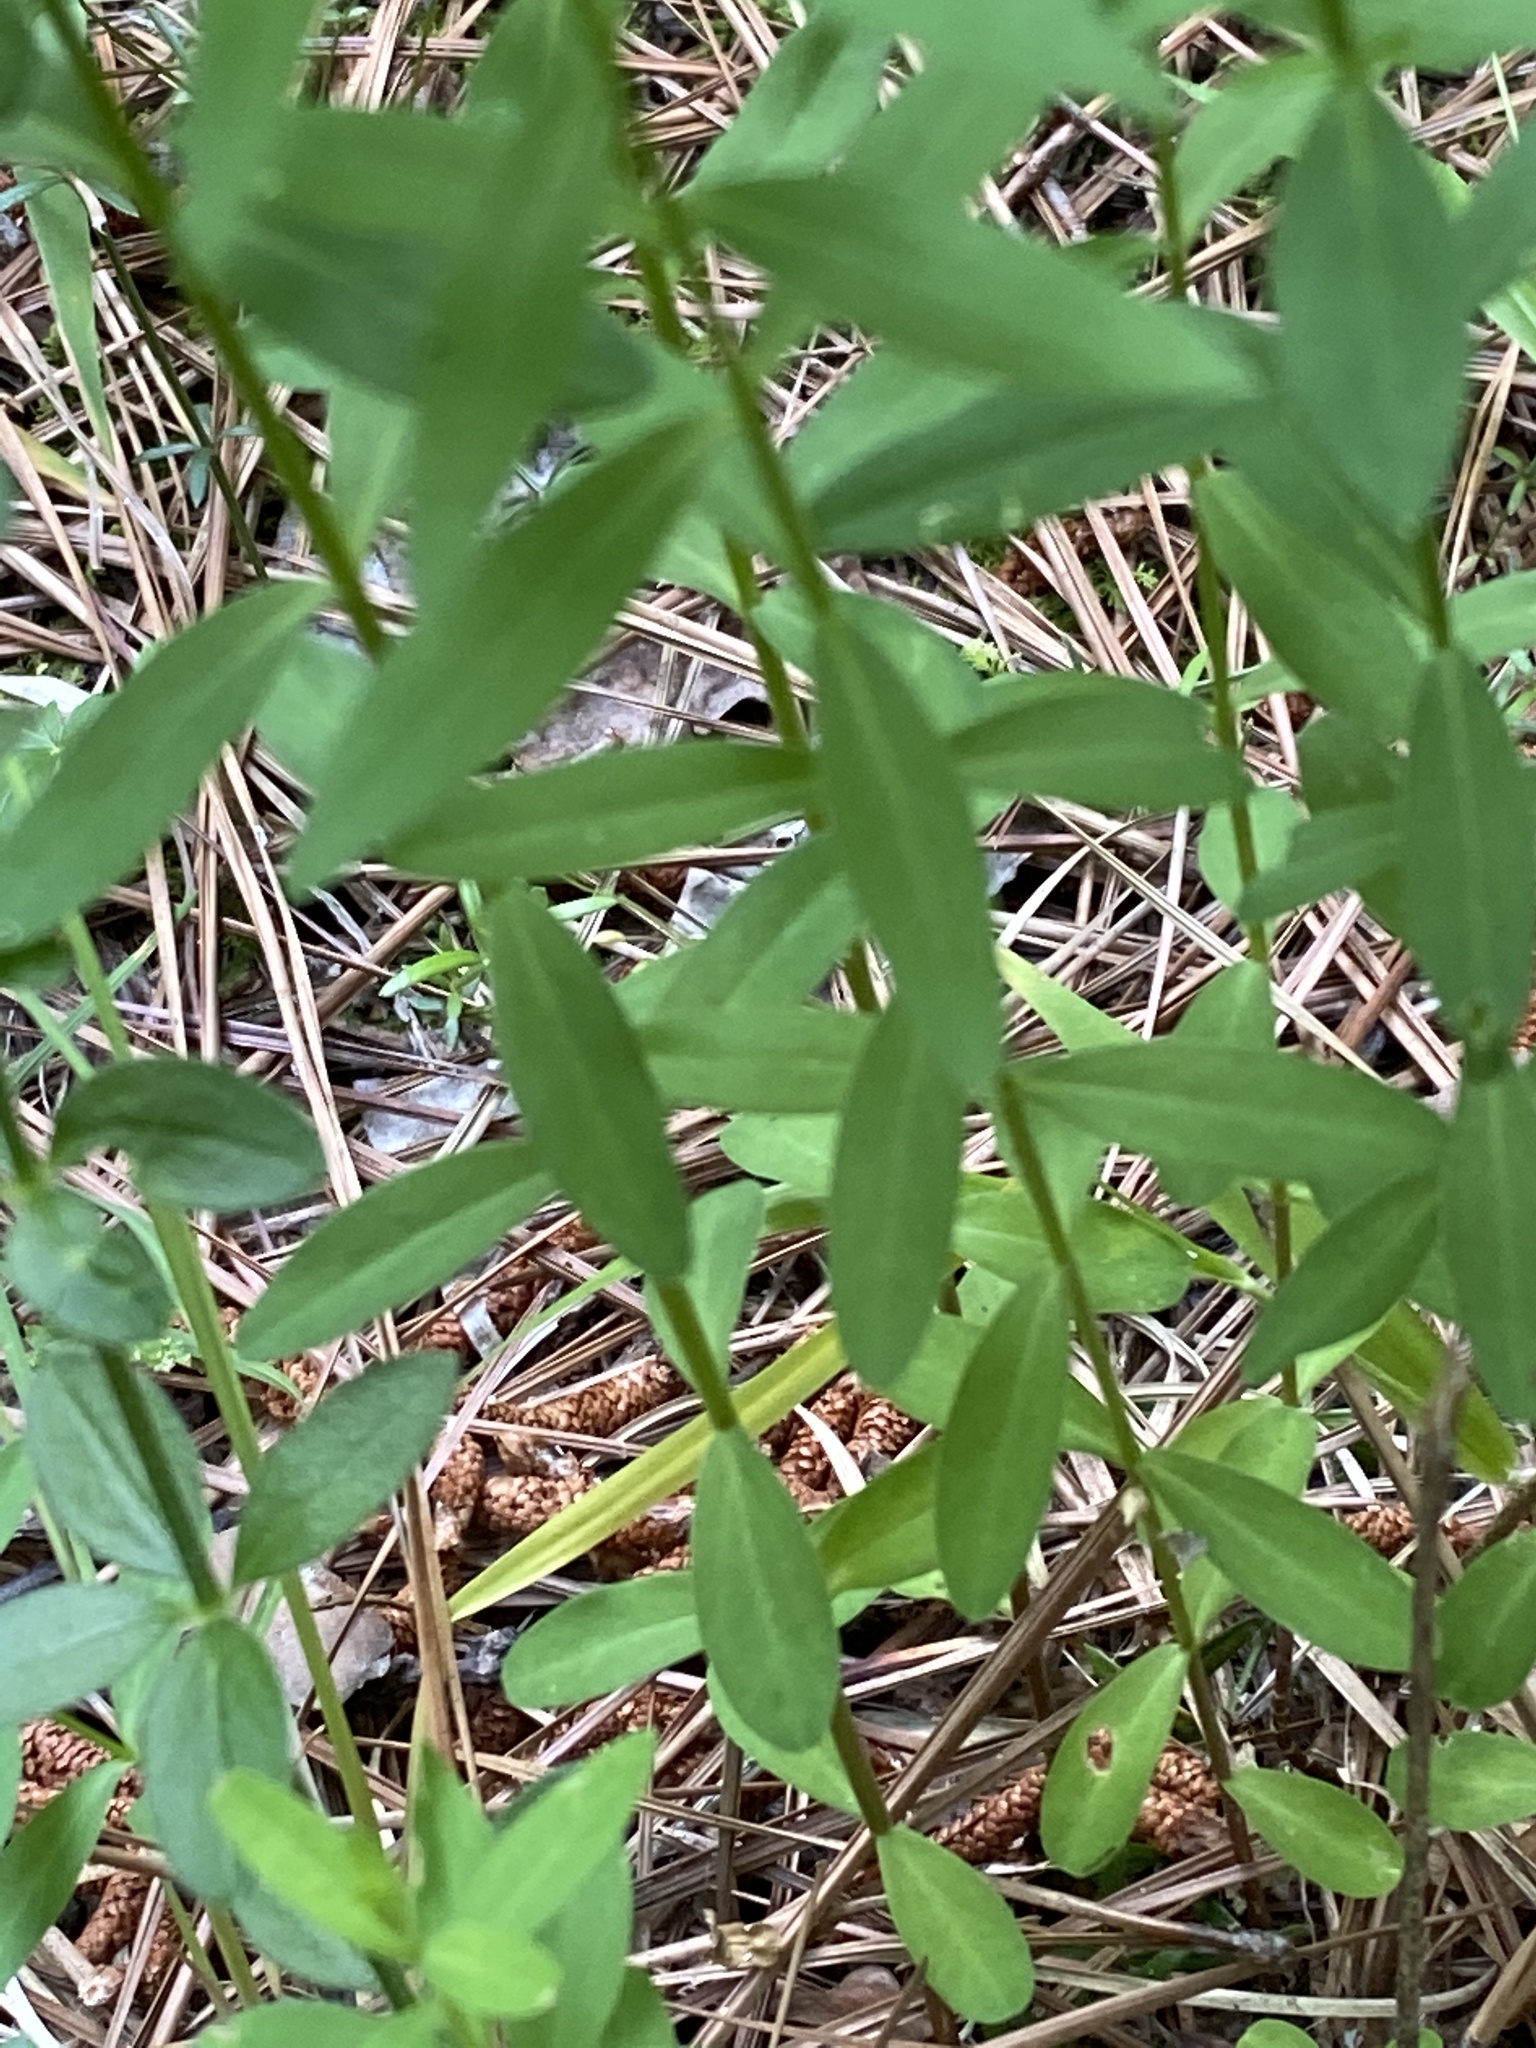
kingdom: Plantae
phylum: Tracheophyta
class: Magnoliopsida
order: Malpighiales
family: Linaceae
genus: Linum
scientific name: Linum virginianum
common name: Slender yellow flax
